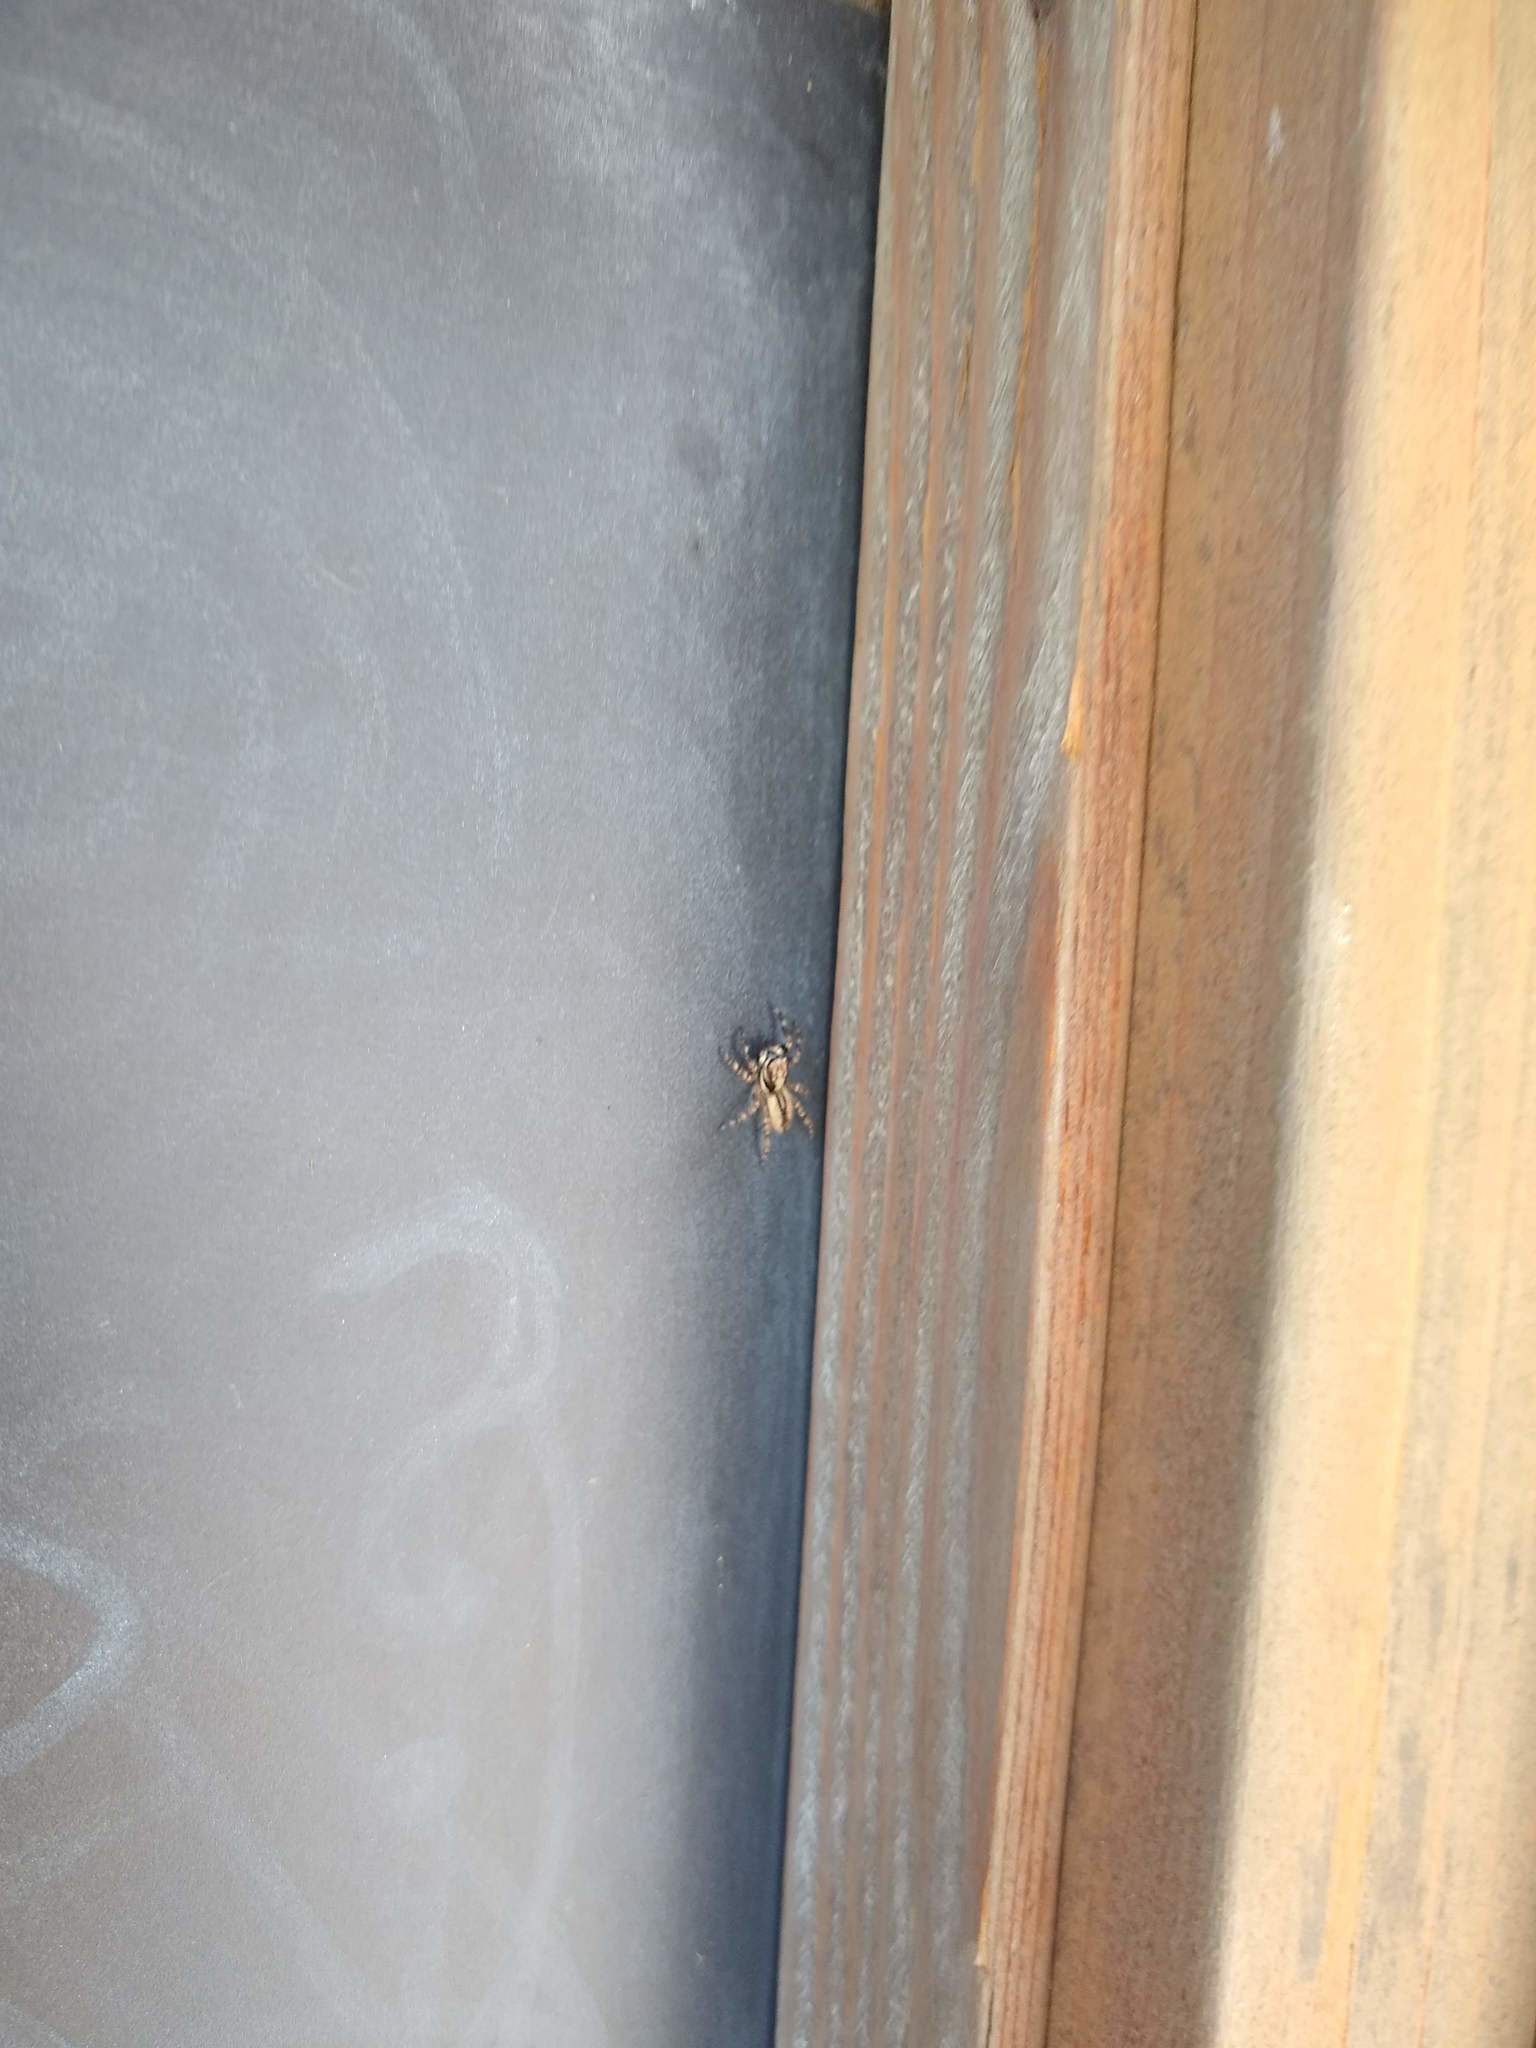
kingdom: Animalia
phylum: Arthropoda
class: Arachnida
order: Araneae
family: Salticidae
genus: Menemerus
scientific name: Menemerus bivittatus
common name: Gray wall jumper
